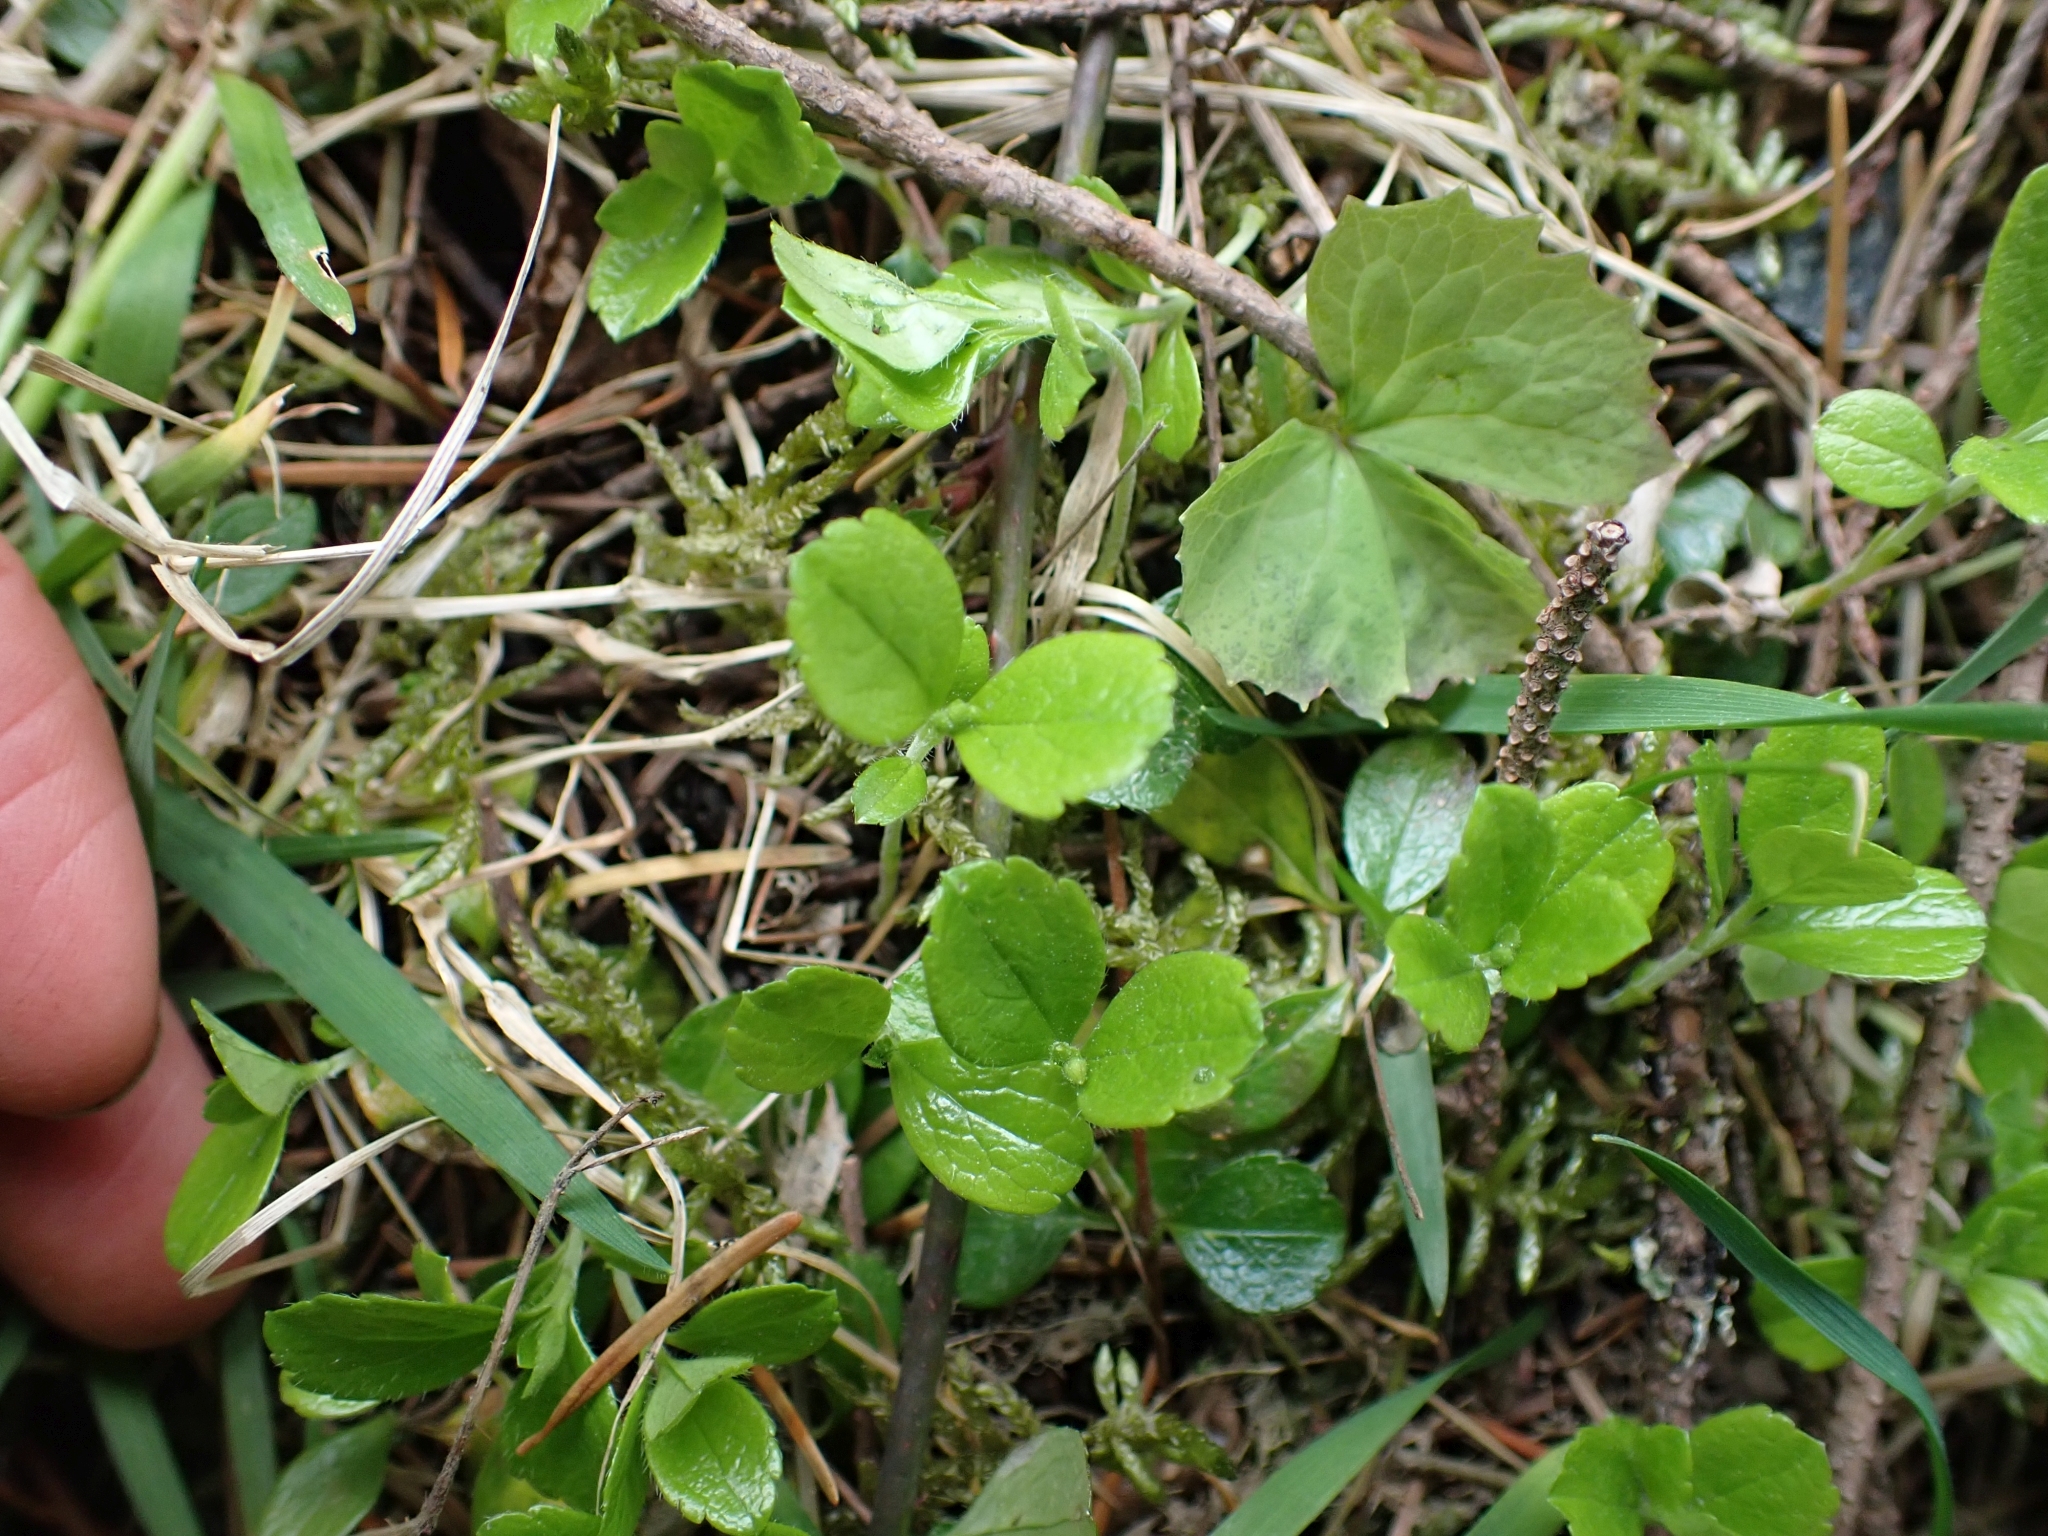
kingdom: Plantae
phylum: Tracheophyta
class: Magnoliopsida
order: Dipsacales
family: Caprifoliaceae
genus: Linnaea
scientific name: Linnaea borealis
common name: Twinflower
